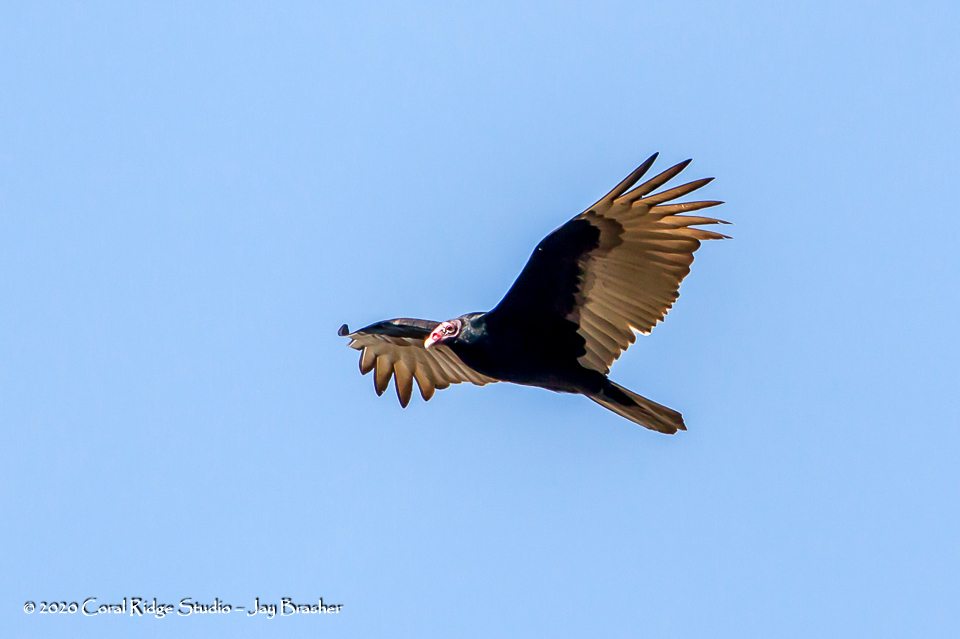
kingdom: Animalia
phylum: Chordata
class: Aves
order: Accipitriformes
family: Cathartidae
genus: Cathartes
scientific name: Cathartes aura
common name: Turkey vulture
